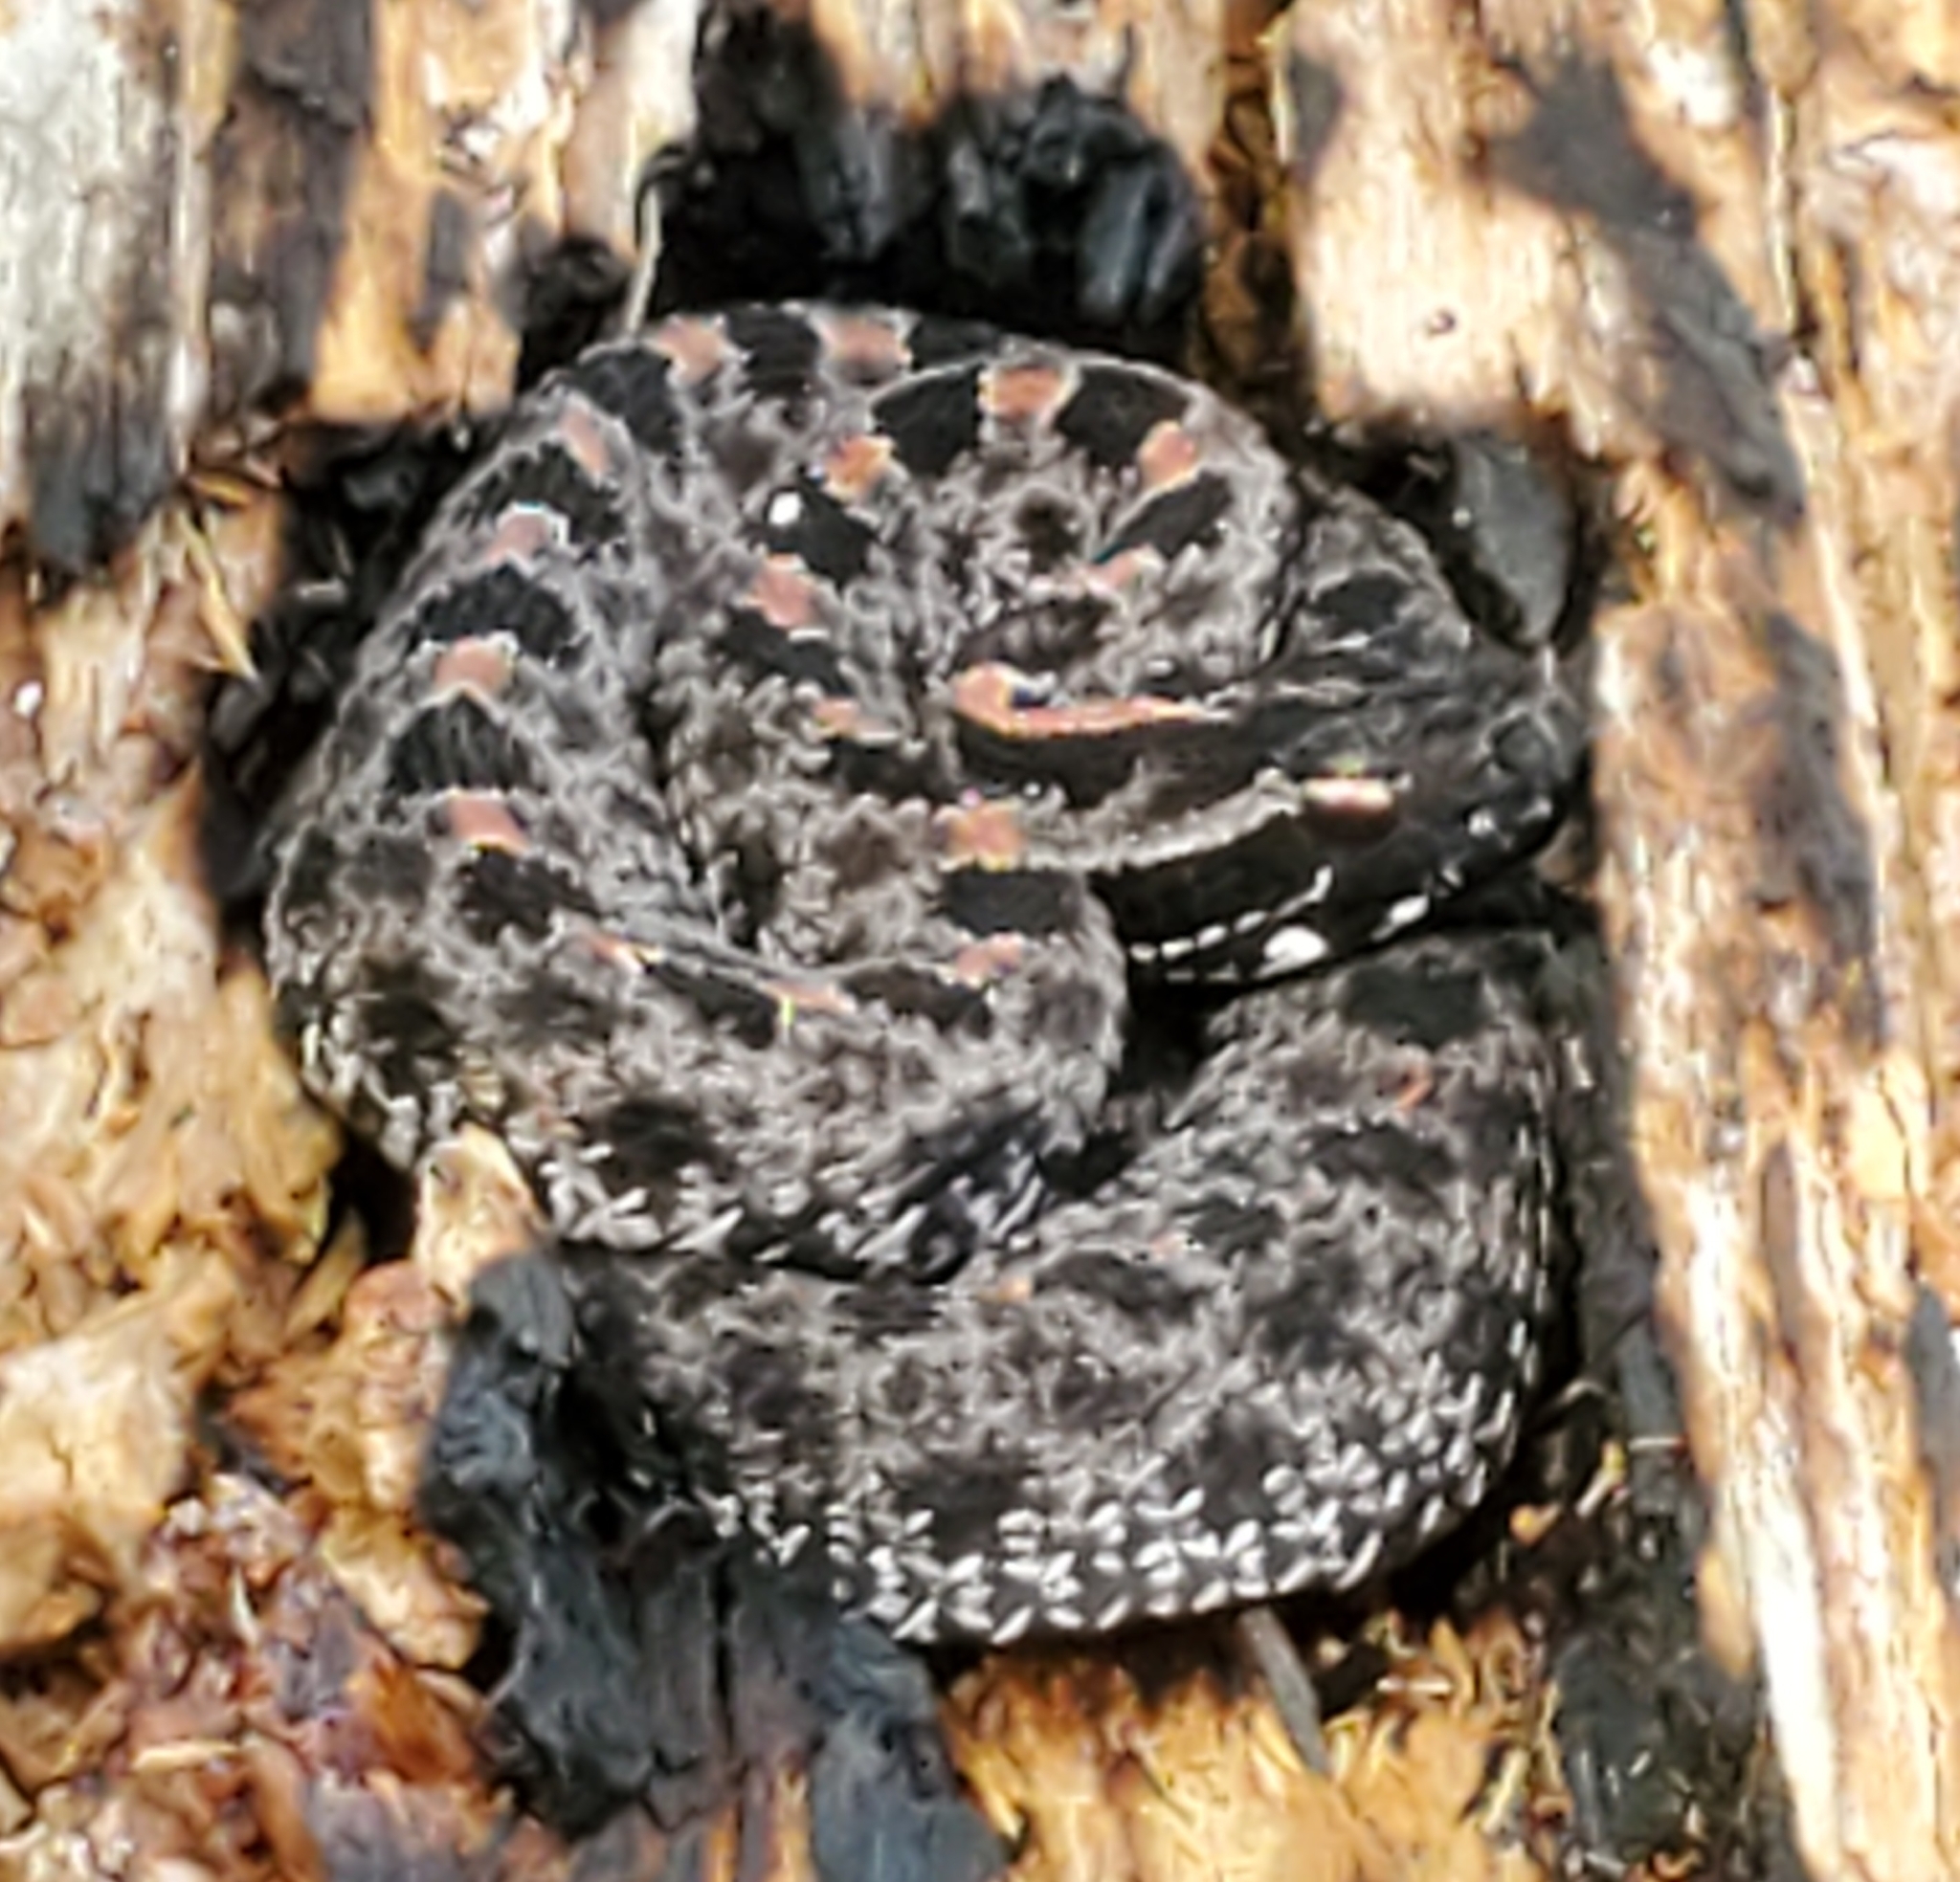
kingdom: Animalia
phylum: Chordata
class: Squamata
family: Viperidae
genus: Sistrurus
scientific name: Sistrurus miliarius
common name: Pygmy rattlesnake
